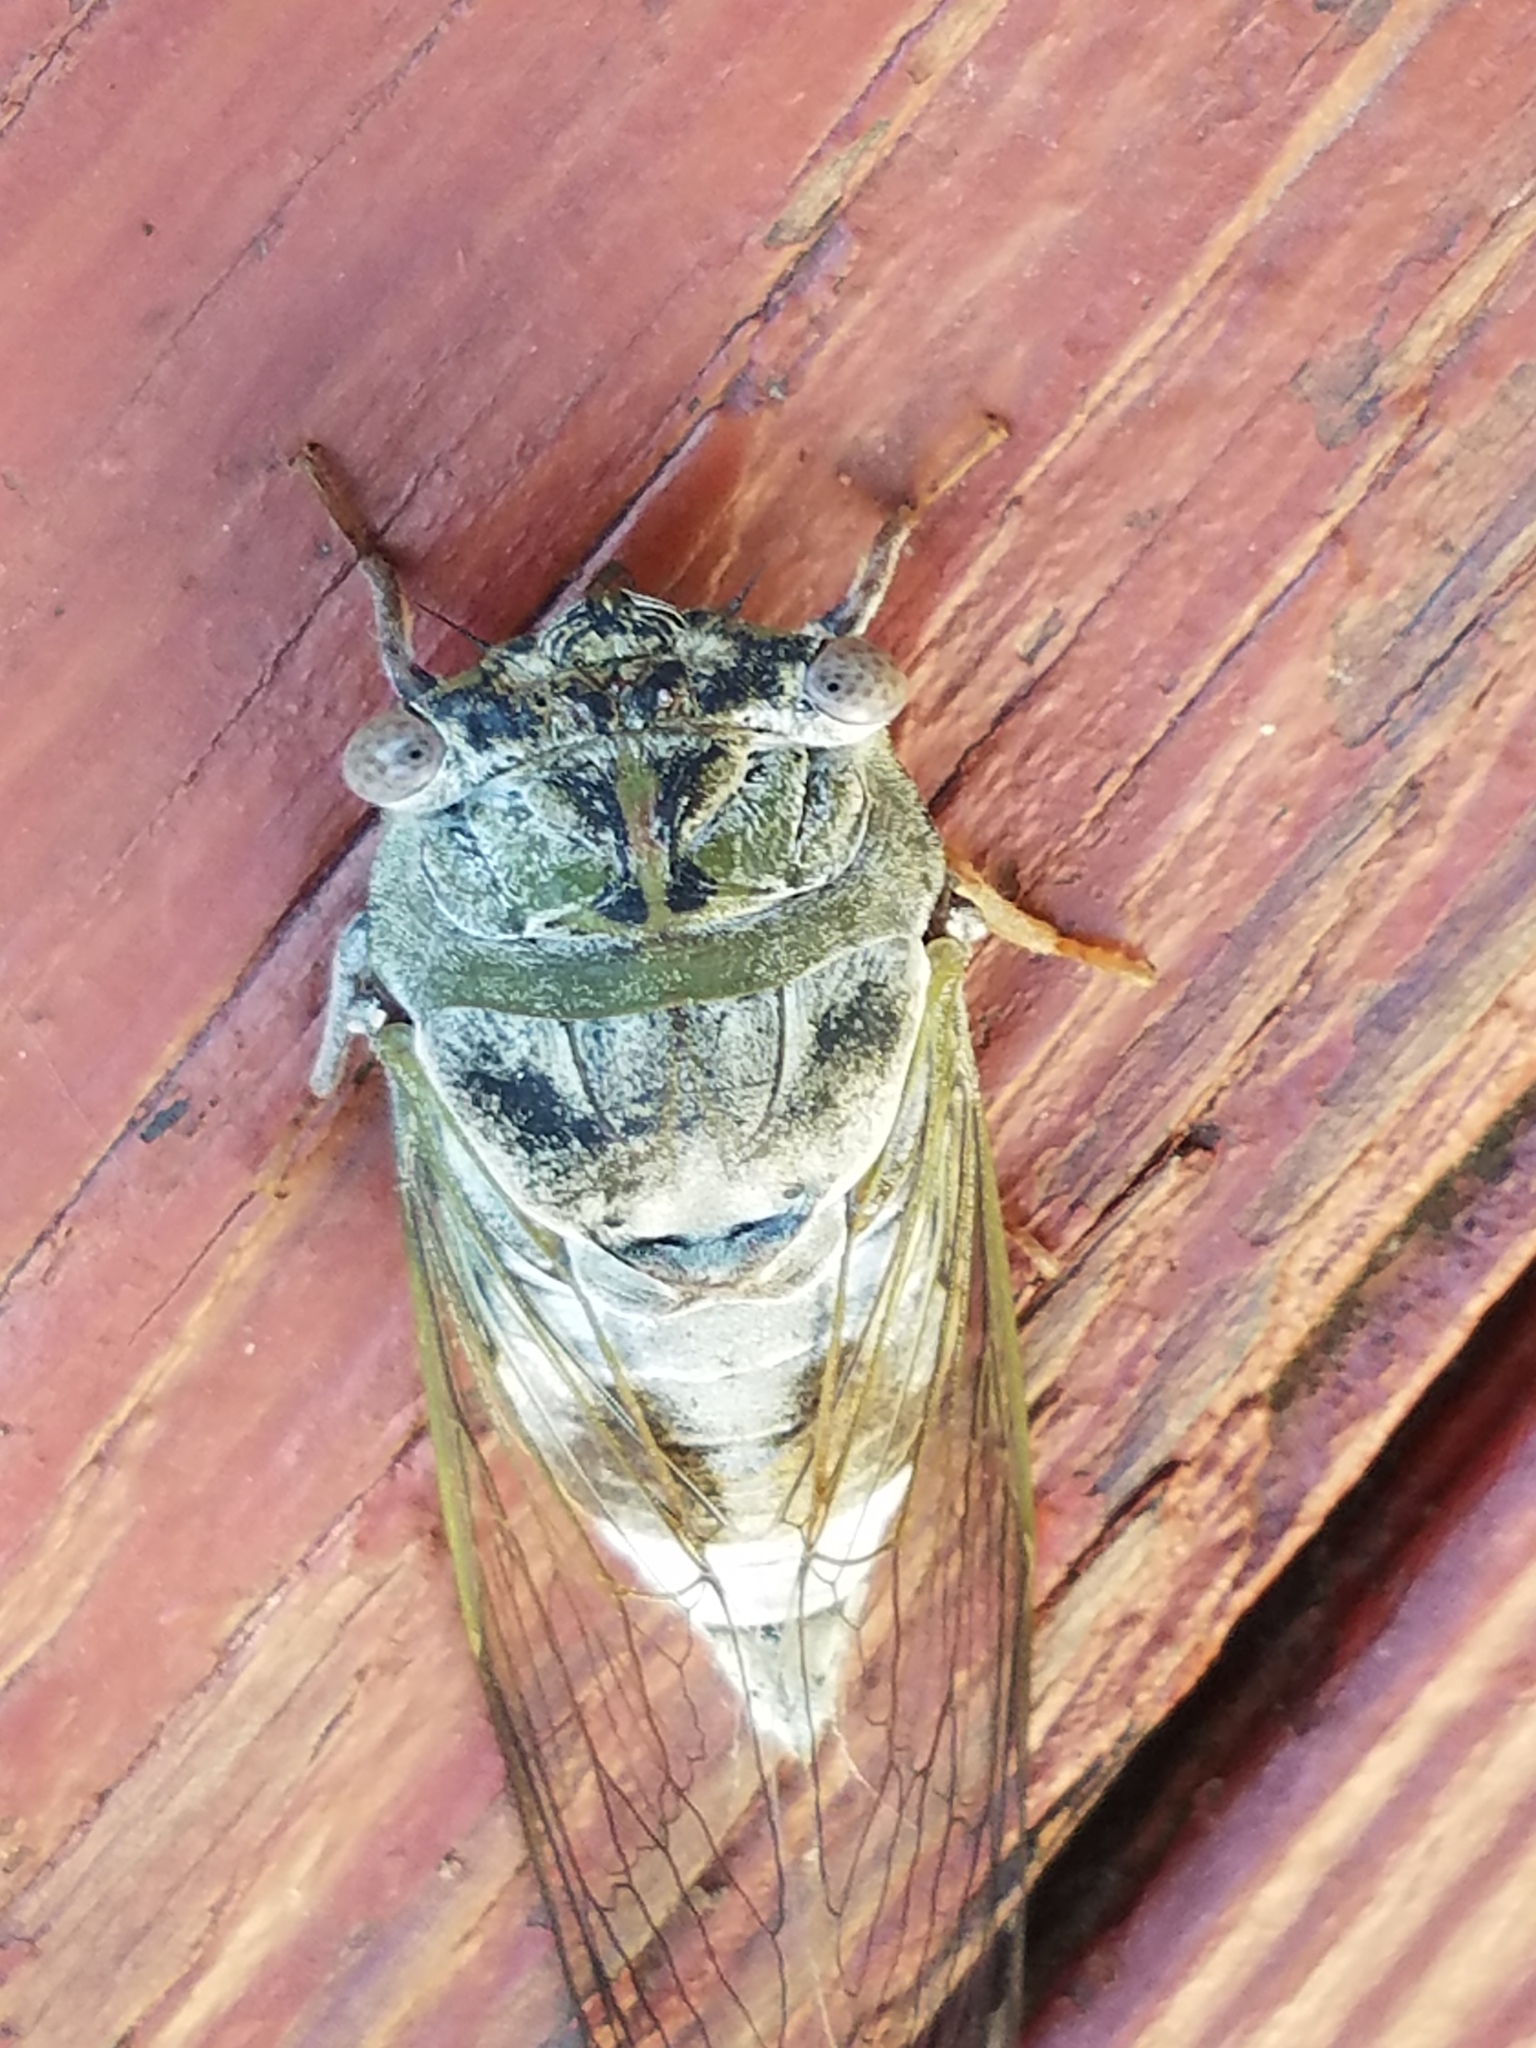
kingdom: Animalia
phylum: Arthropoda
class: Insecta
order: Hemiptera
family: Cicadidae
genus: Diceroprocta
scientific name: Diceroprocta grossa
